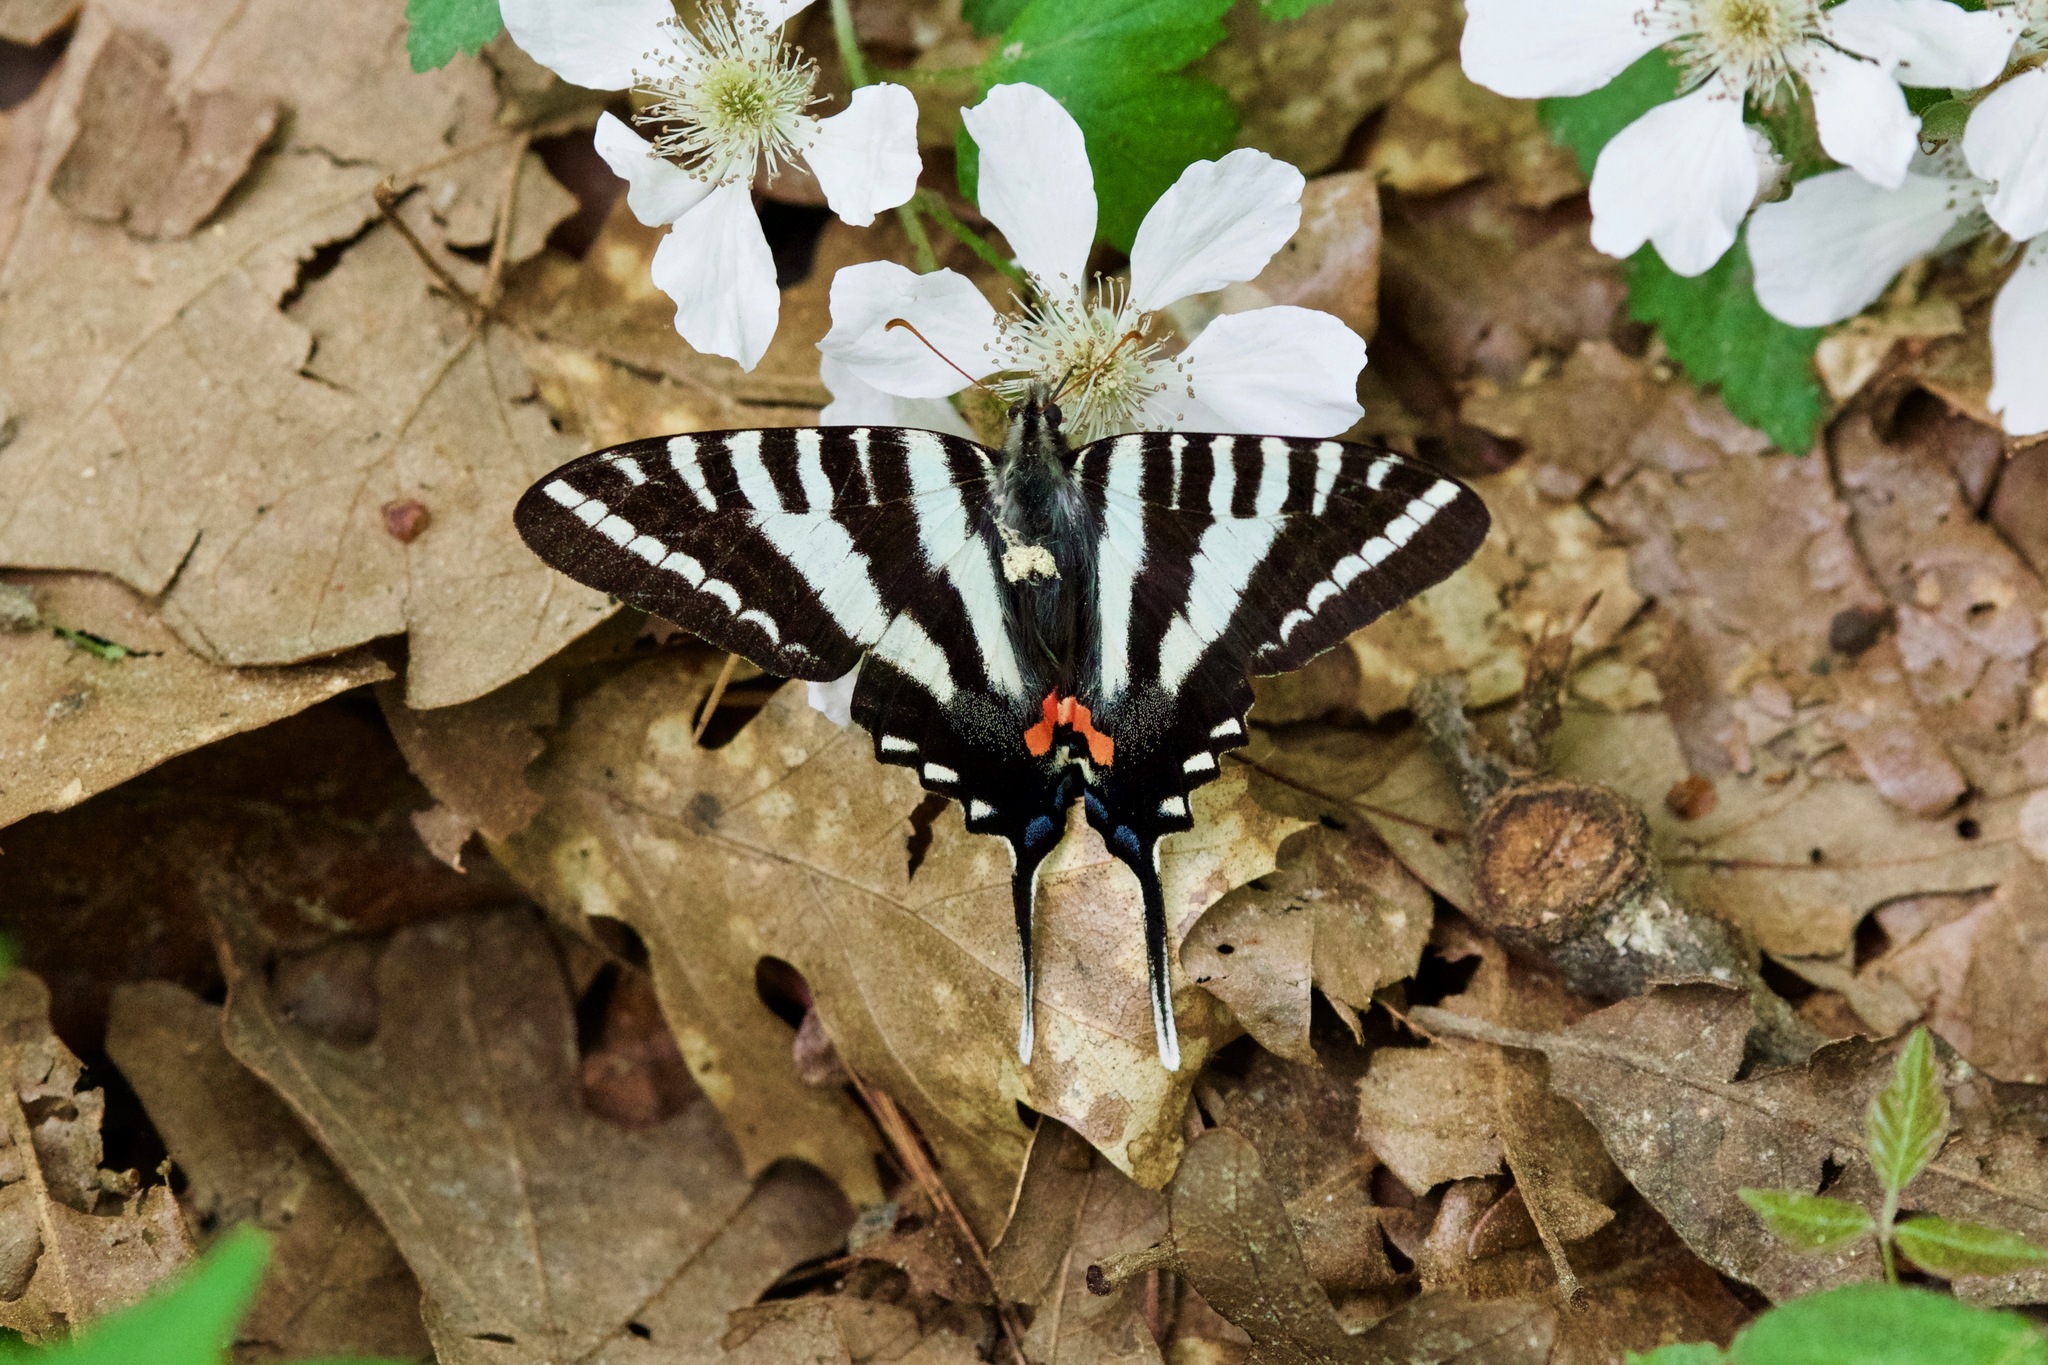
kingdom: Animalia
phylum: Arthropoda
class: Insecta
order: Lepidoptera
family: Papilionidae
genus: Protographium
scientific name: Protographium marcellus
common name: Zebra swallowtail
